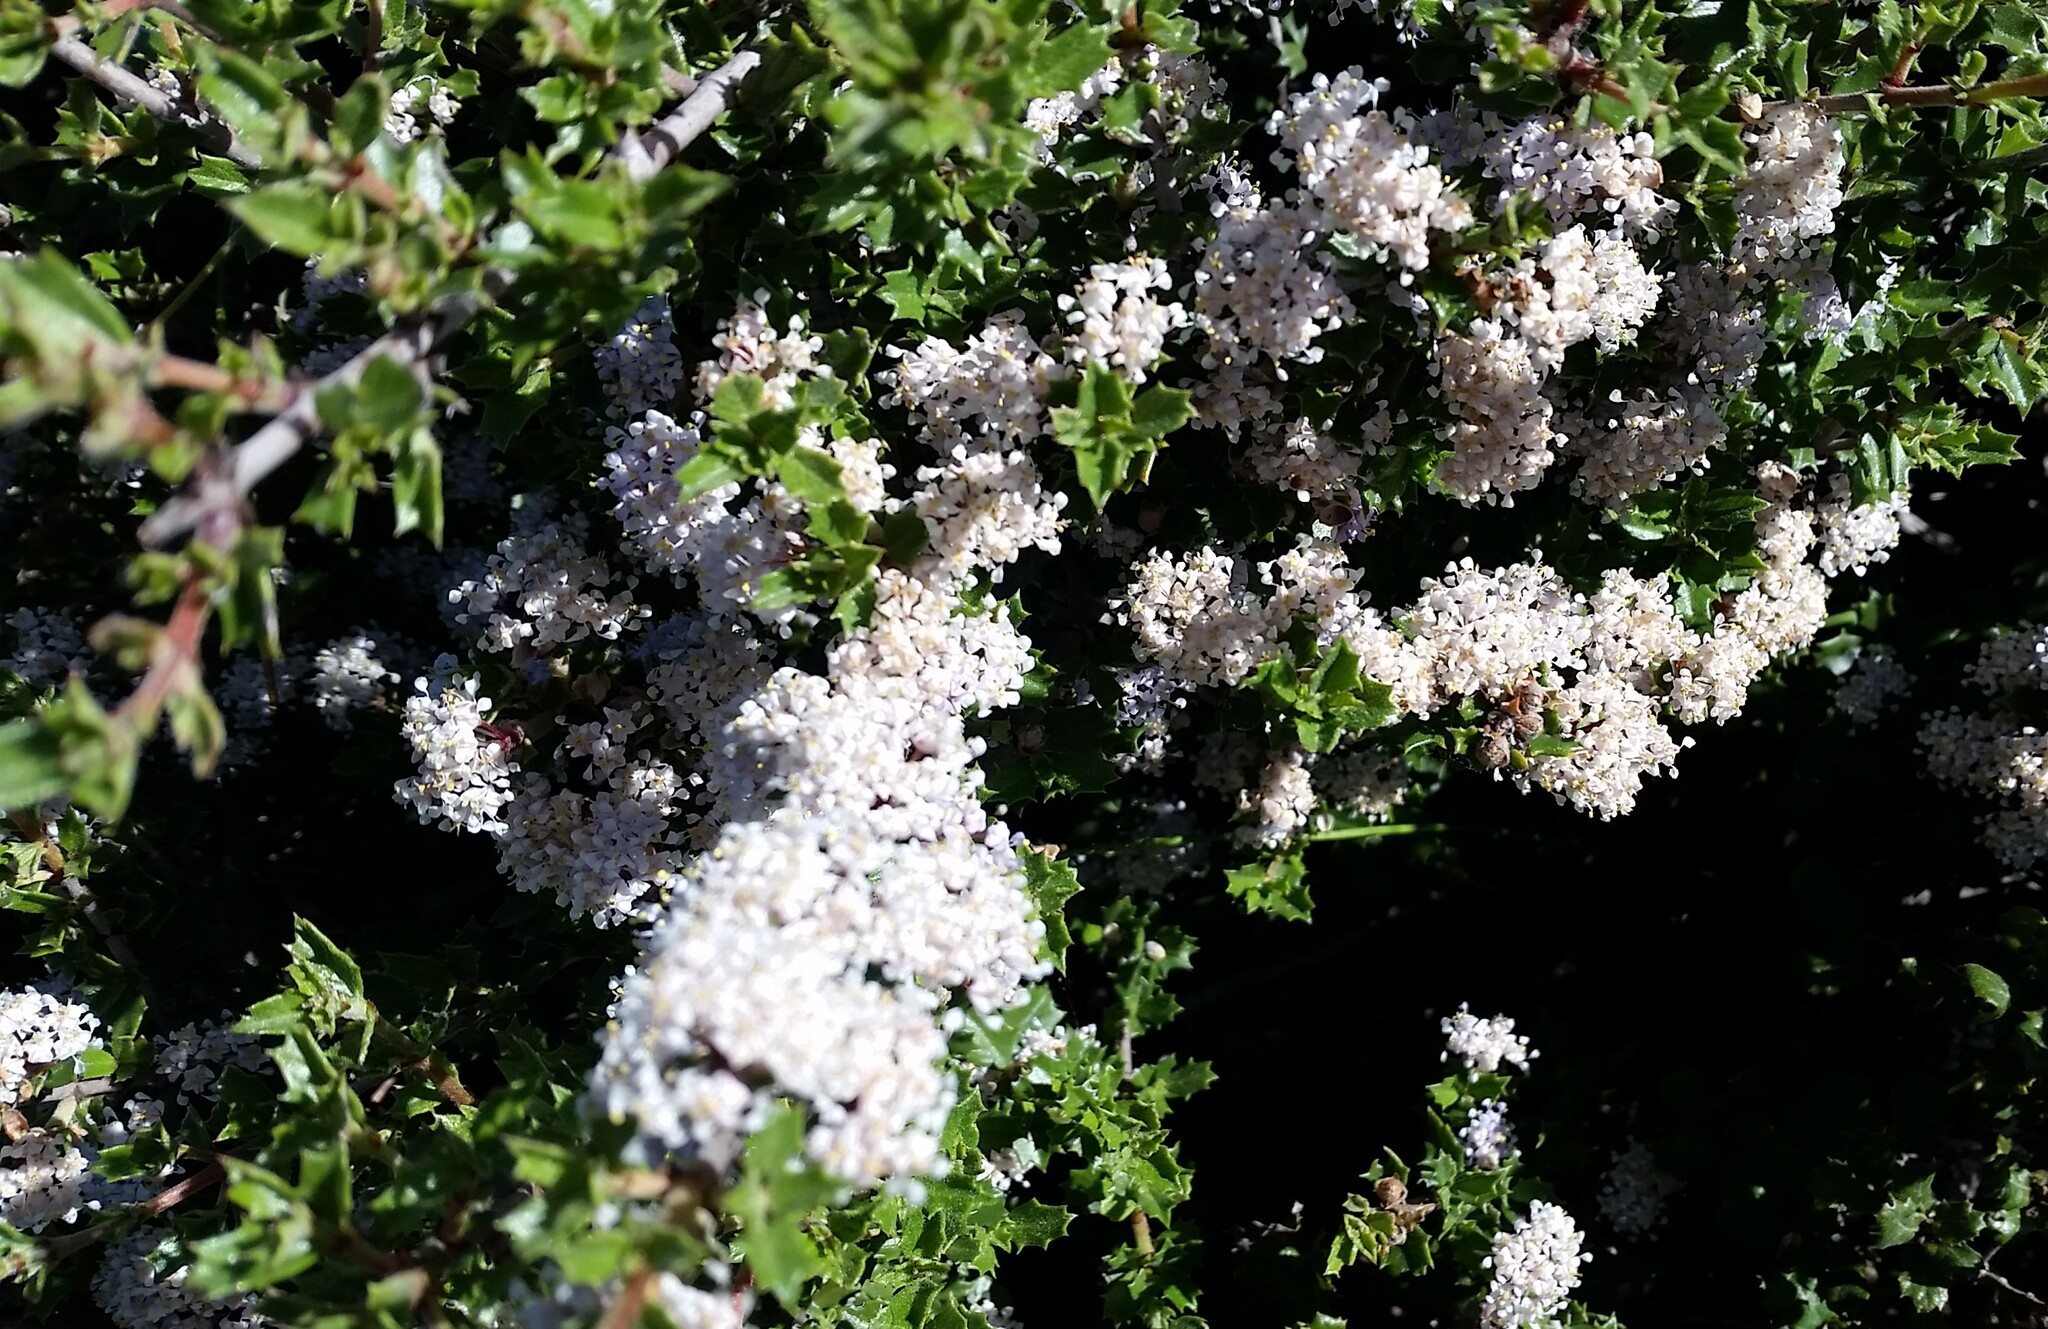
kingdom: Plantae
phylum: Tracheophyta
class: Magnoliopsida
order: Rosales
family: Rhamnaceae
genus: Ceanothus
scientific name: Ceanothus jepsonii
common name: Muskbrush
